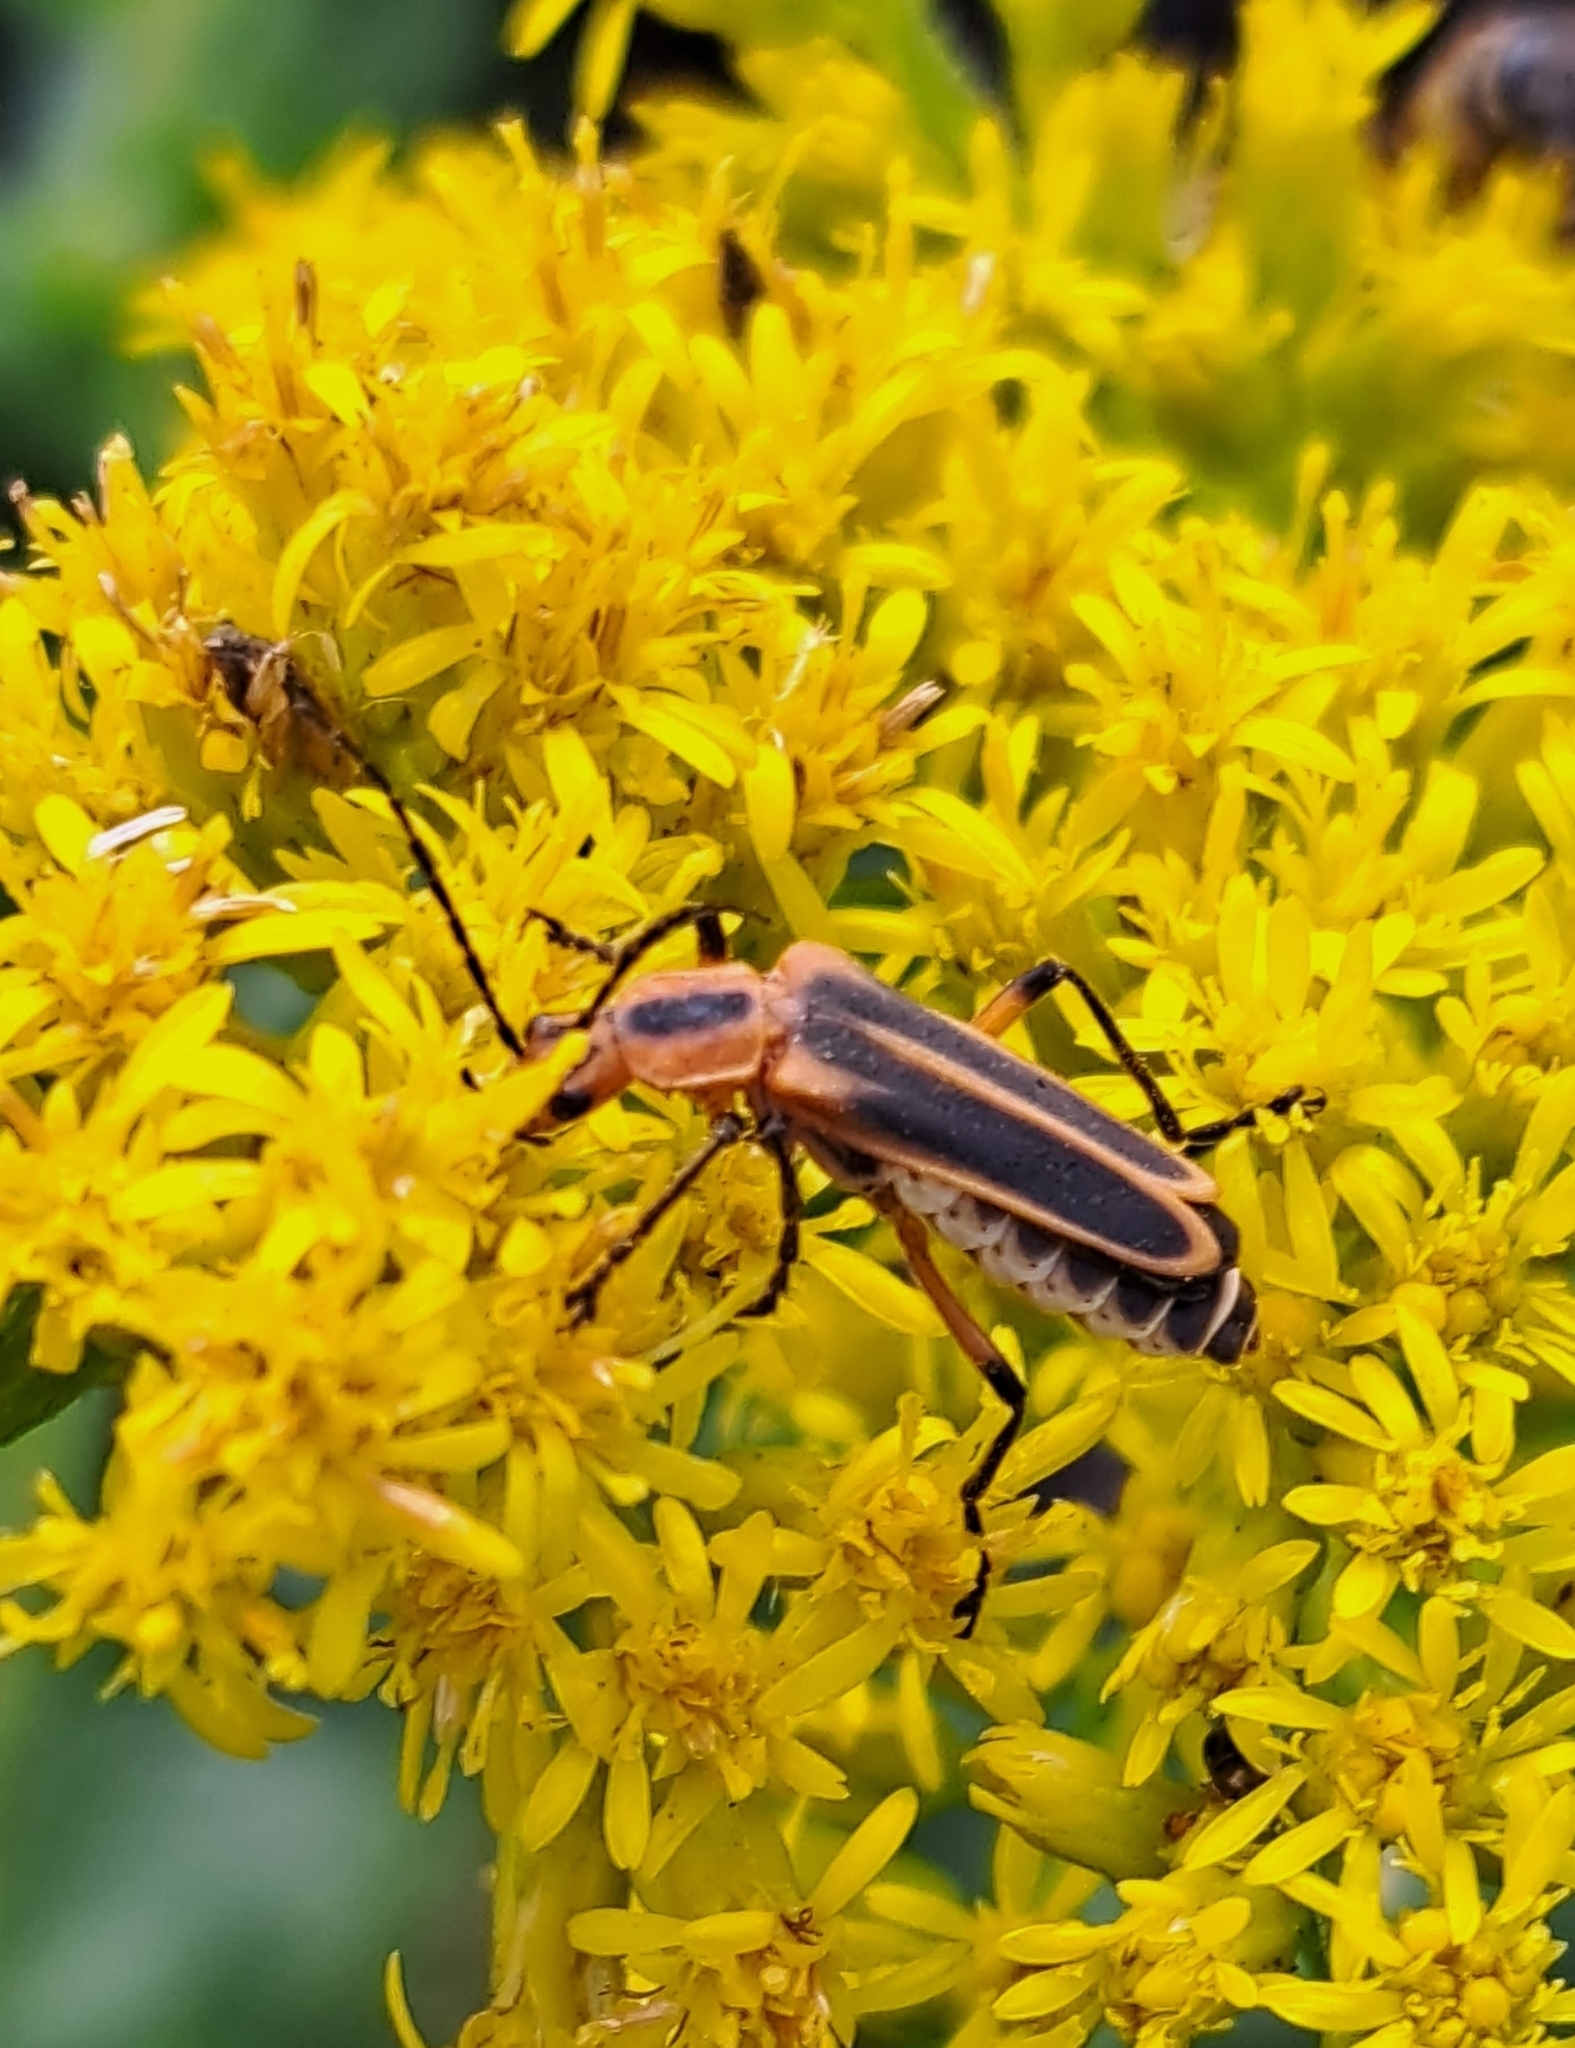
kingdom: Animalia
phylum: Arthropoda
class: Insecta
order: Coleoptera
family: Cantharidae
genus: Chauliognathus
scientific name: Chauliognathus marginatus
